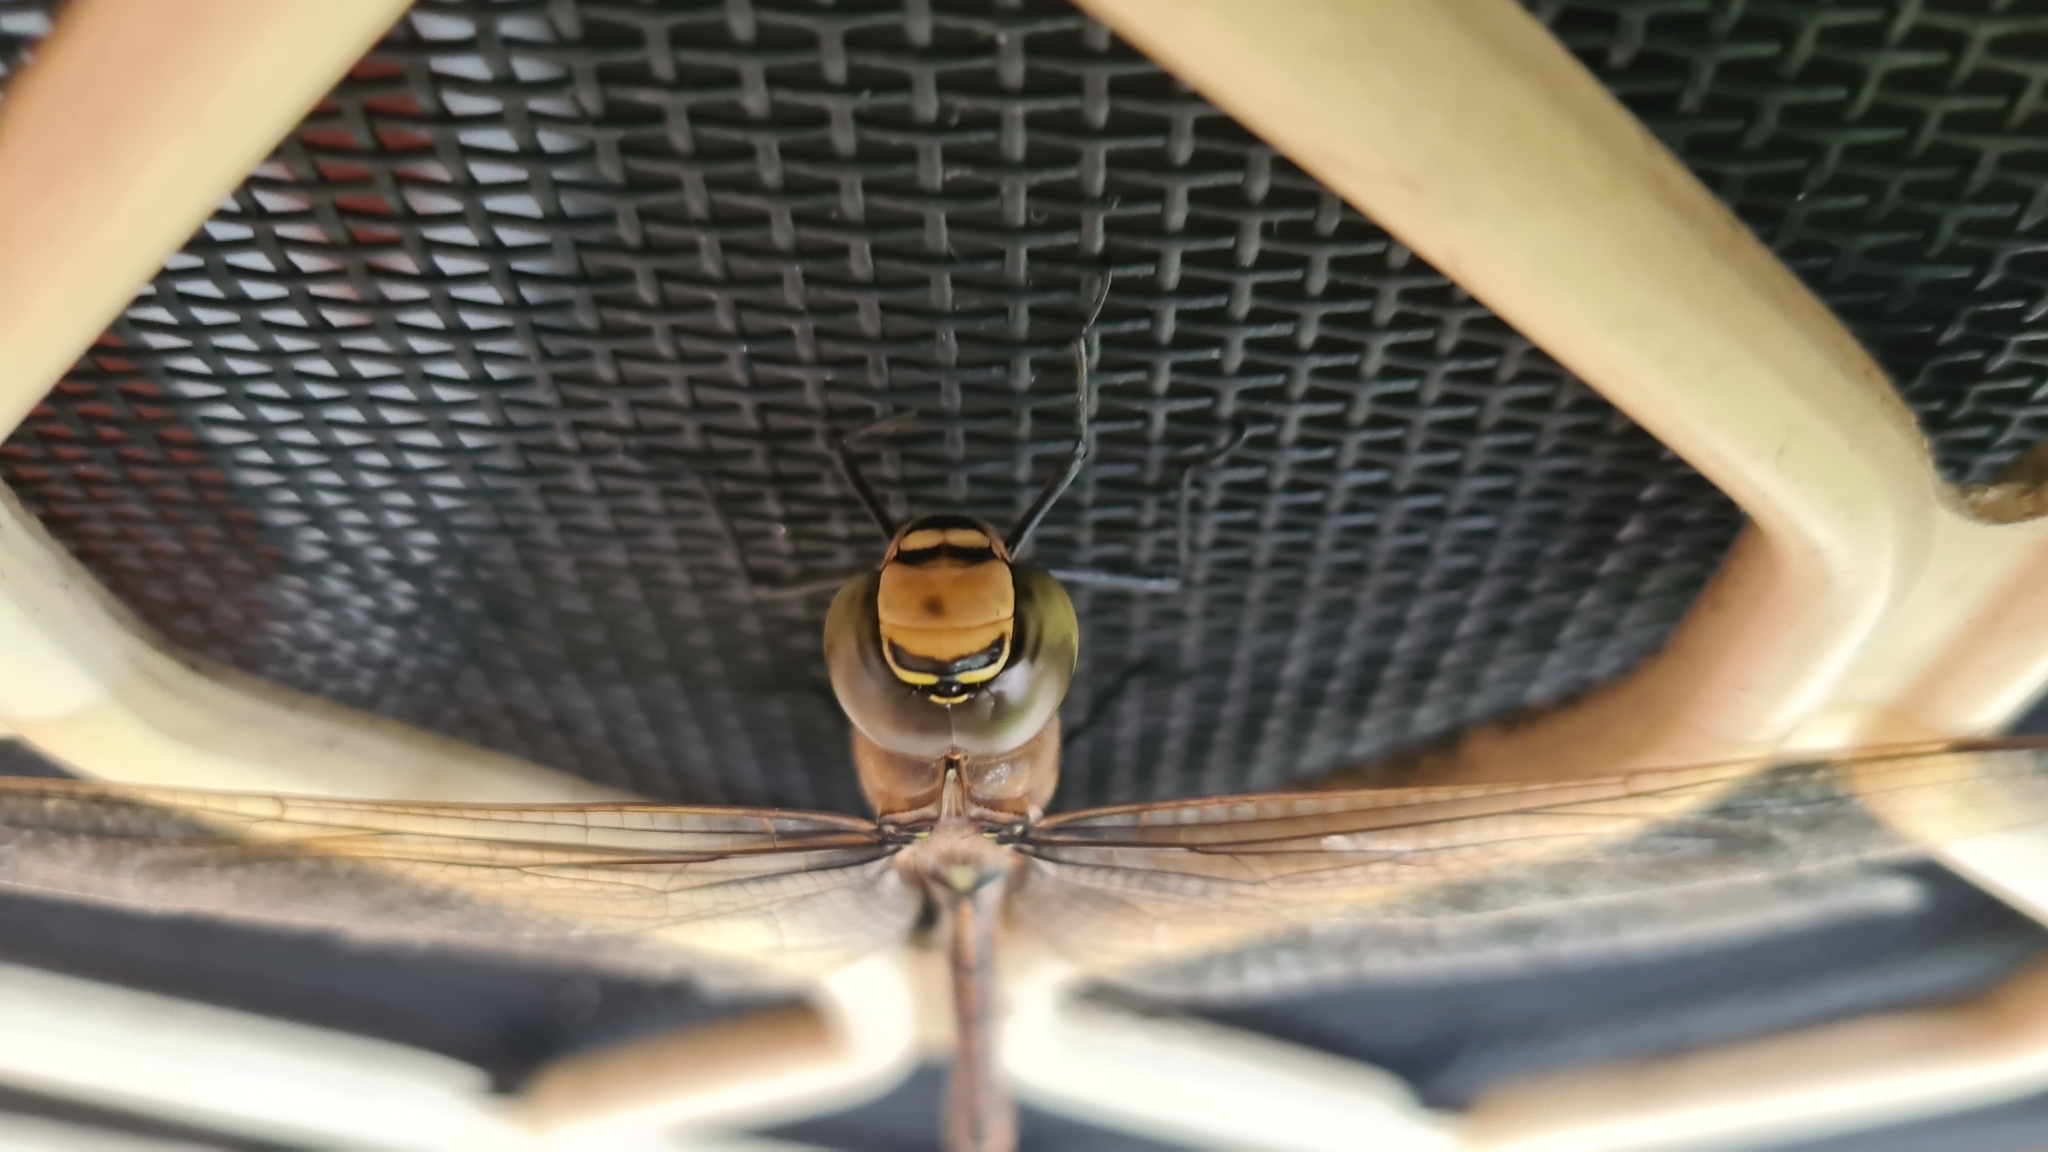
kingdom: Animalia
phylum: Arthropoda
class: Insecta
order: Odonata
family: Aeshnidae
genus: Anax
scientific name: Anax papuensis
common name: Australian emperor
